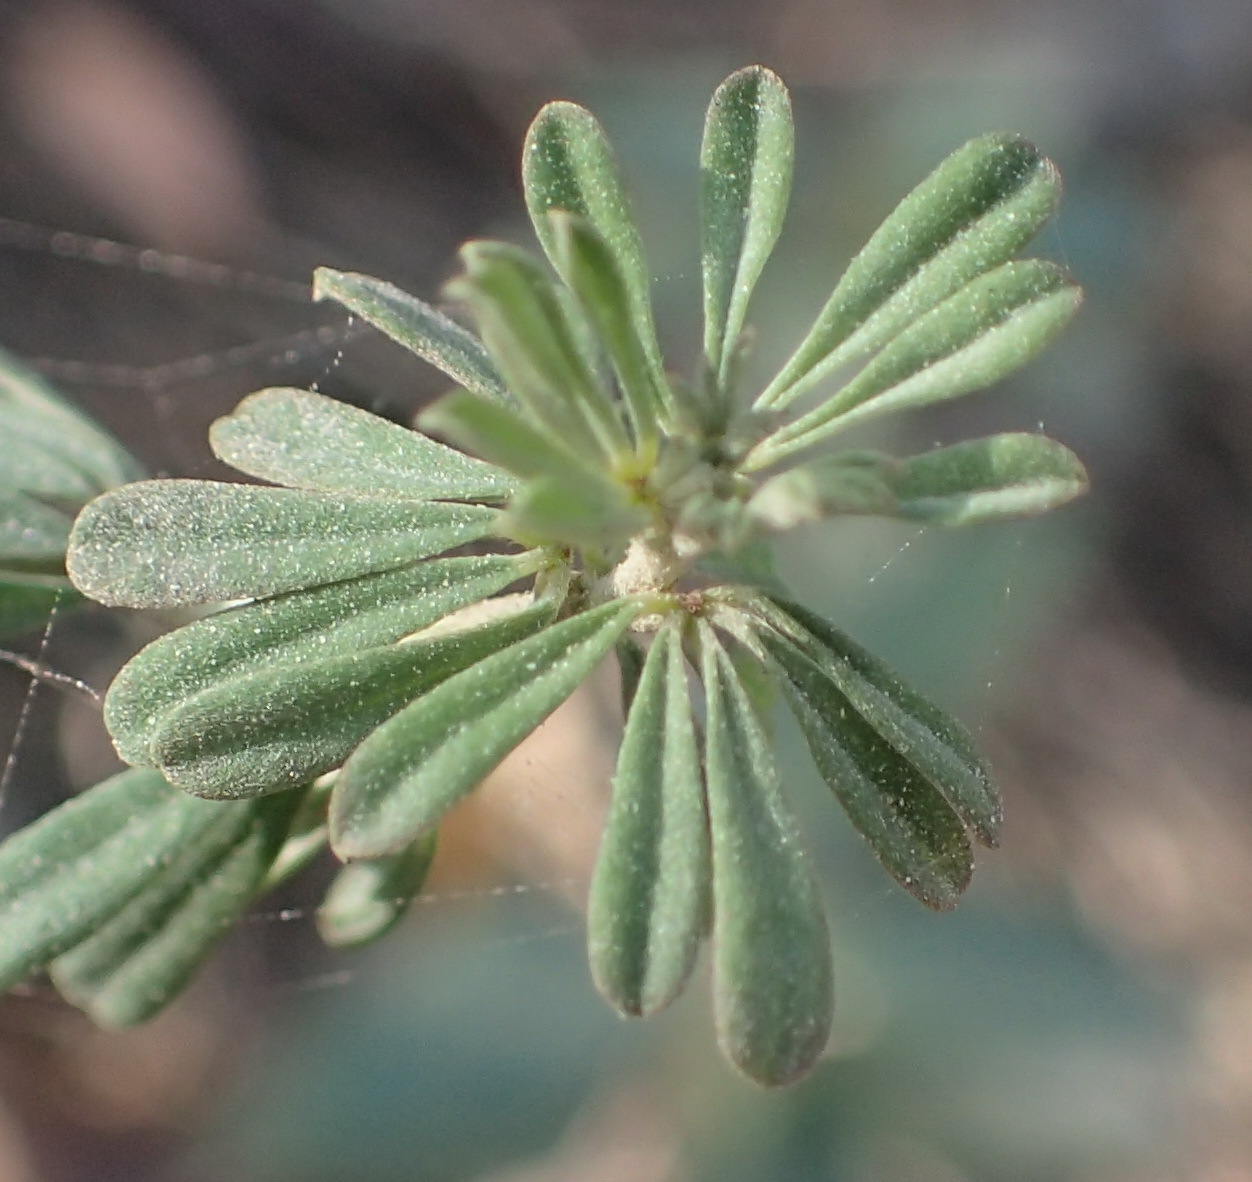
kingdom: Plantae
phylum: Tracheophyta
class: Magnoliopsida
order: Fabales
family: Fabaceae
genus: Indigofera
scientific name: Indigofera flabellata
